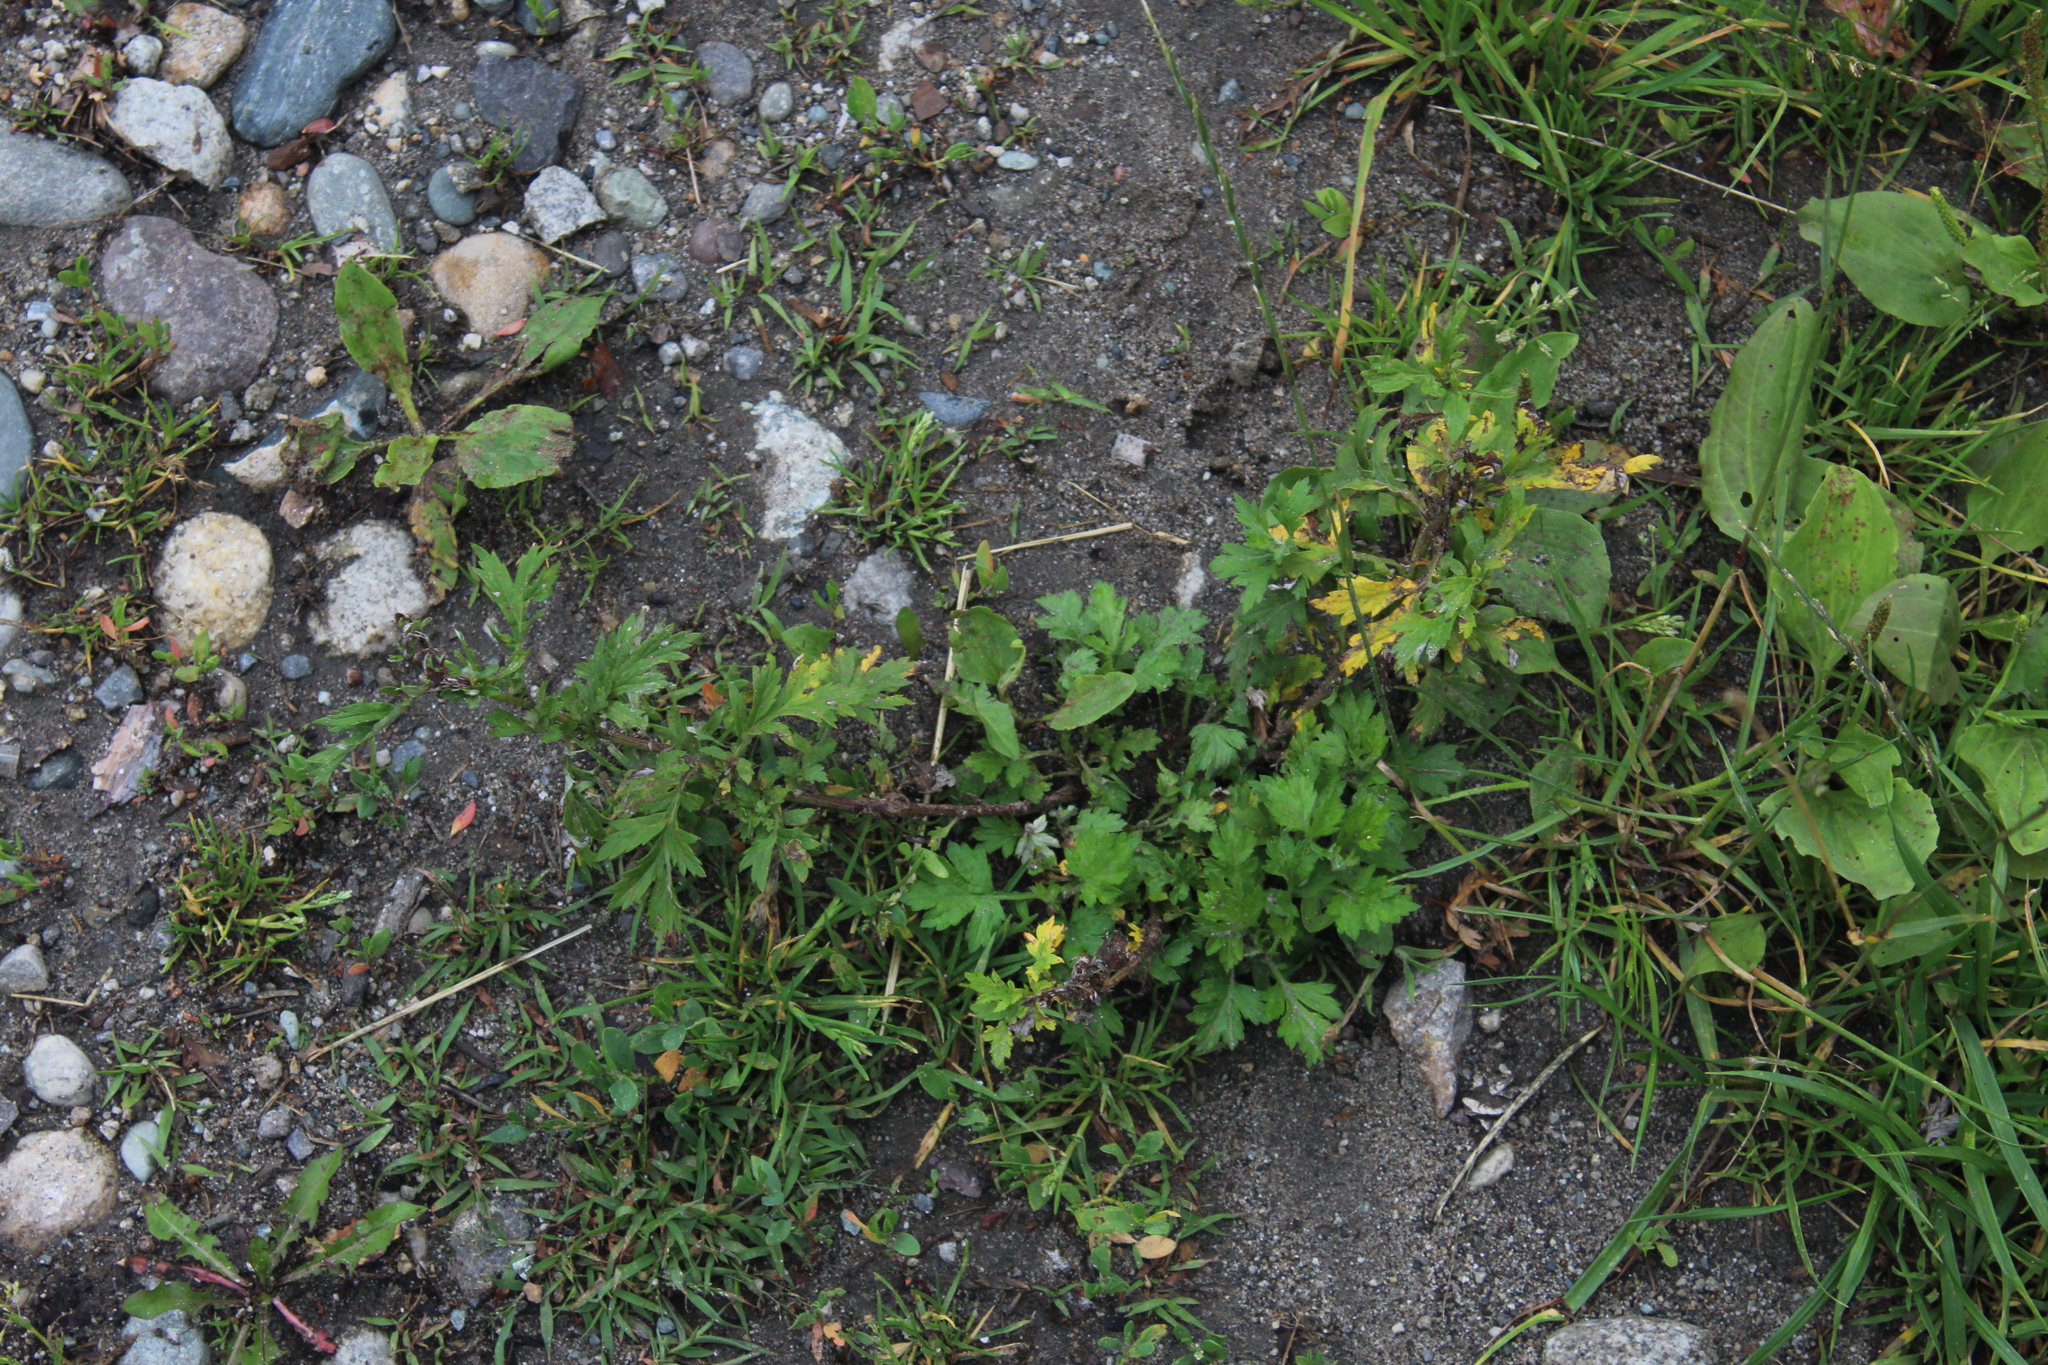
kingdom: Plantae
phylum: Tracheophyta
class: Magnoliopsida
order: Asterales
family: Asteraceae
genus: Artemisia
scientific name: Artemisia vulgaris
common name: Mugwort
